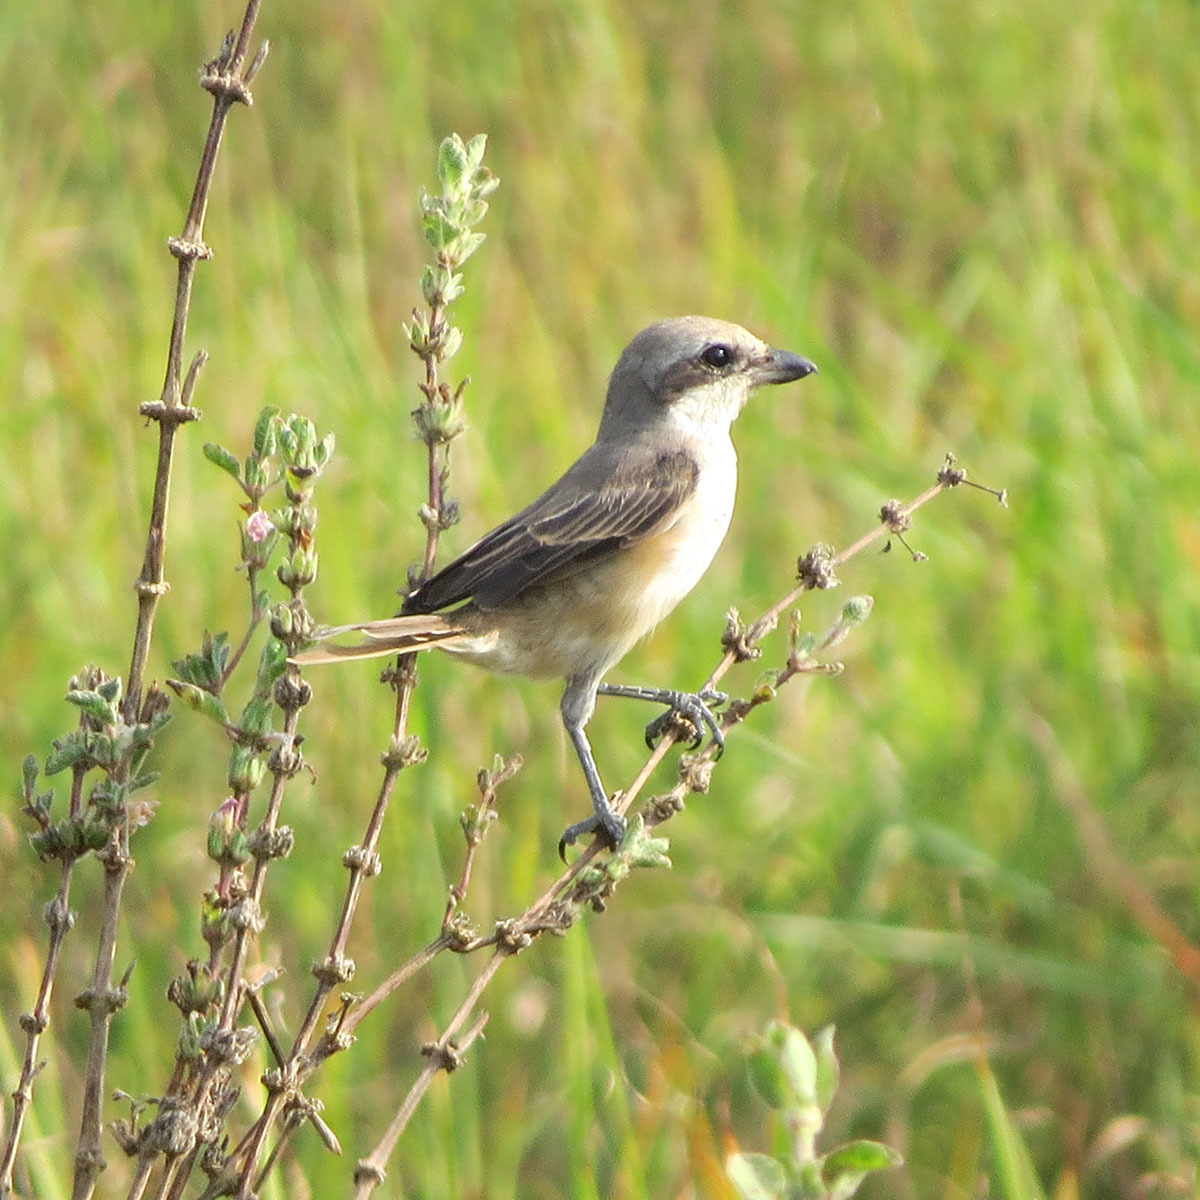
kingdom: Animalia
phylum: Chordata
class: Aves
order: Passeriformes
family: Laniidae
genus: Lanius
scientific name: Lanius cristatus
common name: Brown shrike
